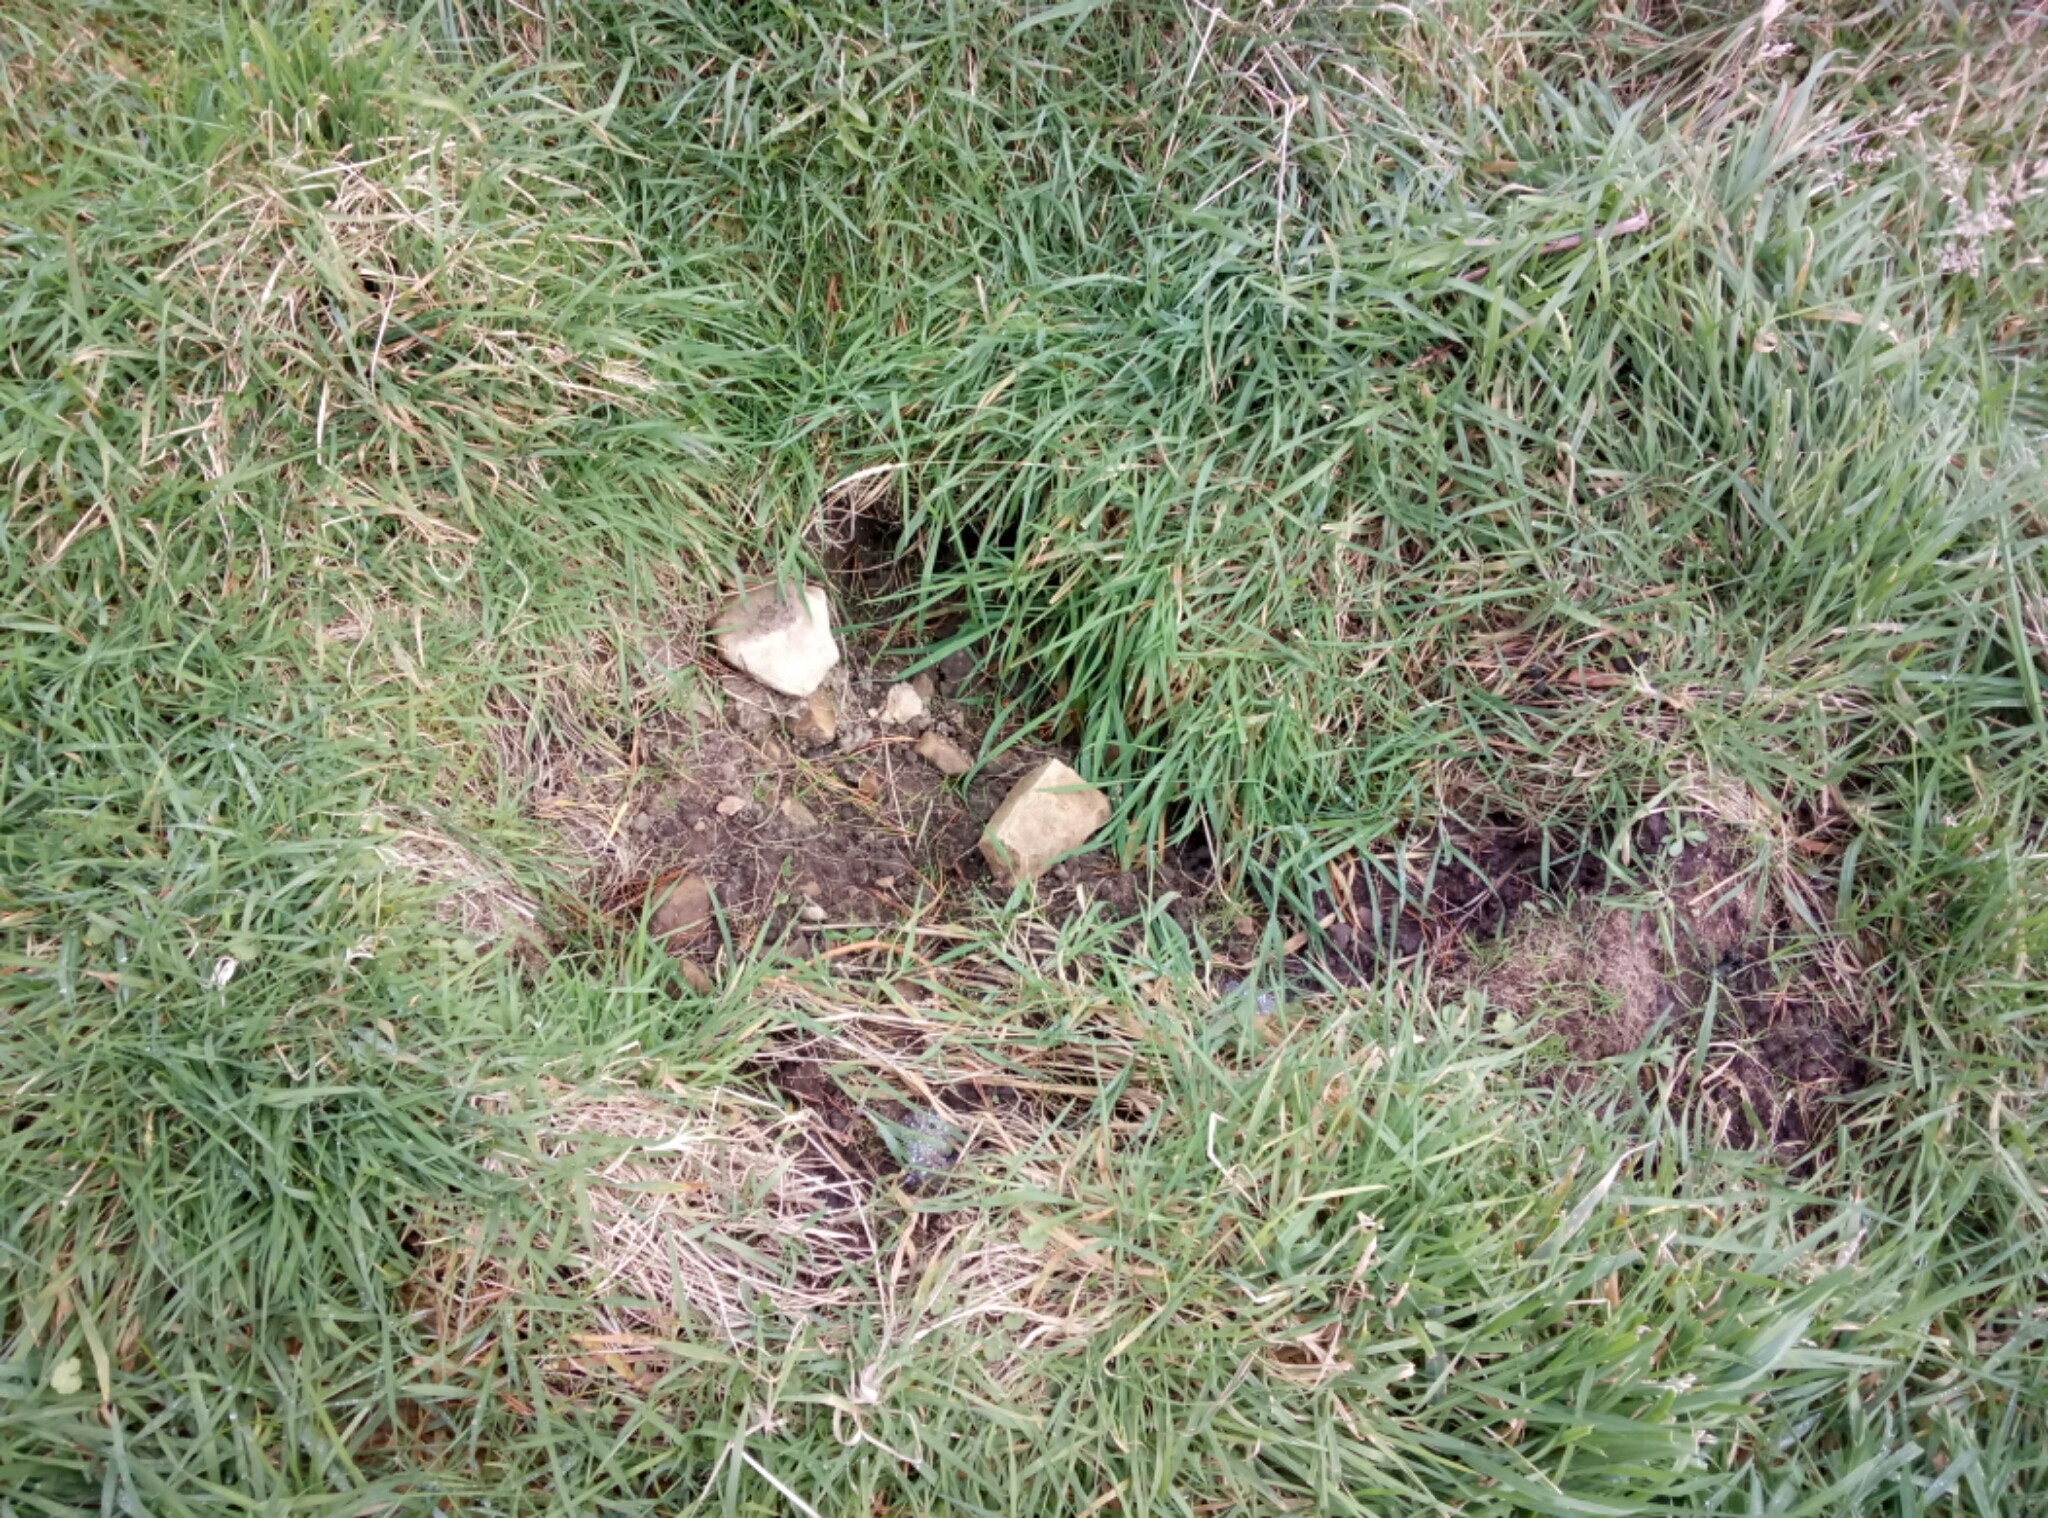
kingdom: Animalia
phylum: Chordata
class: Mammalia
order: Artiodactyla
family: Suidae
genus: Sus
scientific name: Sus scrofa
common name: Wild boar
